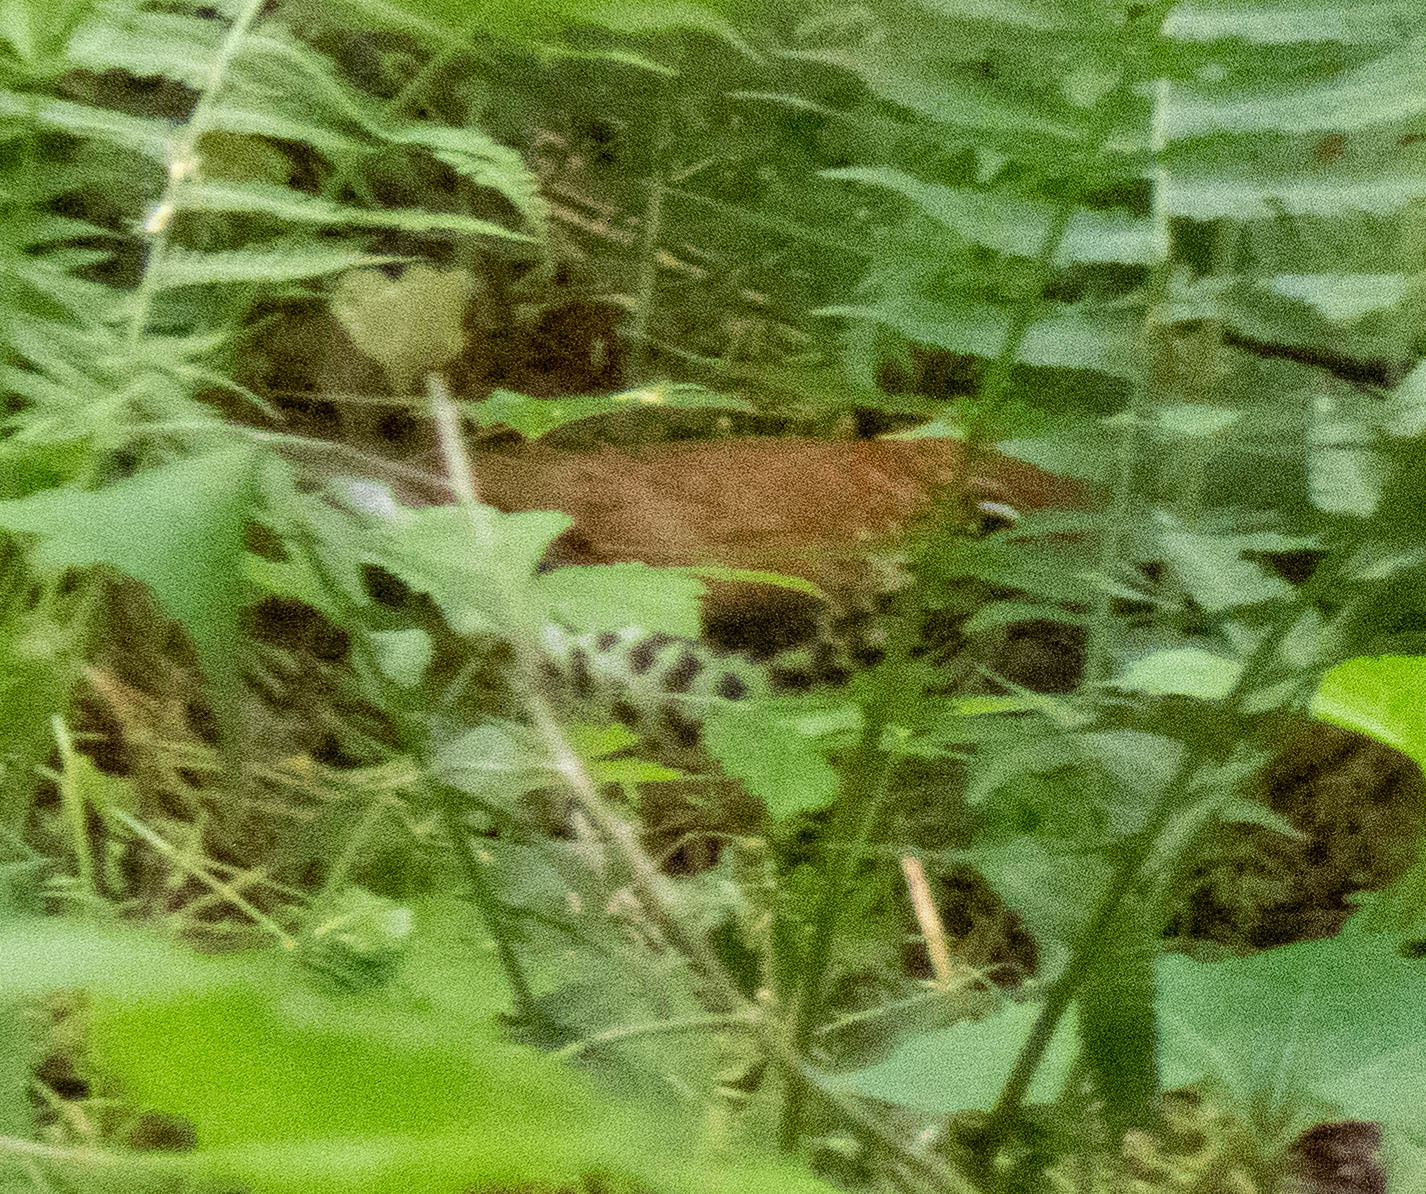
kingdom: Animalia
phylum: Chordata
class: Aves
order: Passeriformes
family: Turdidae
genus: Hylocichla
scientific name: Hylocichla mustelina
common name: Wood thrush
